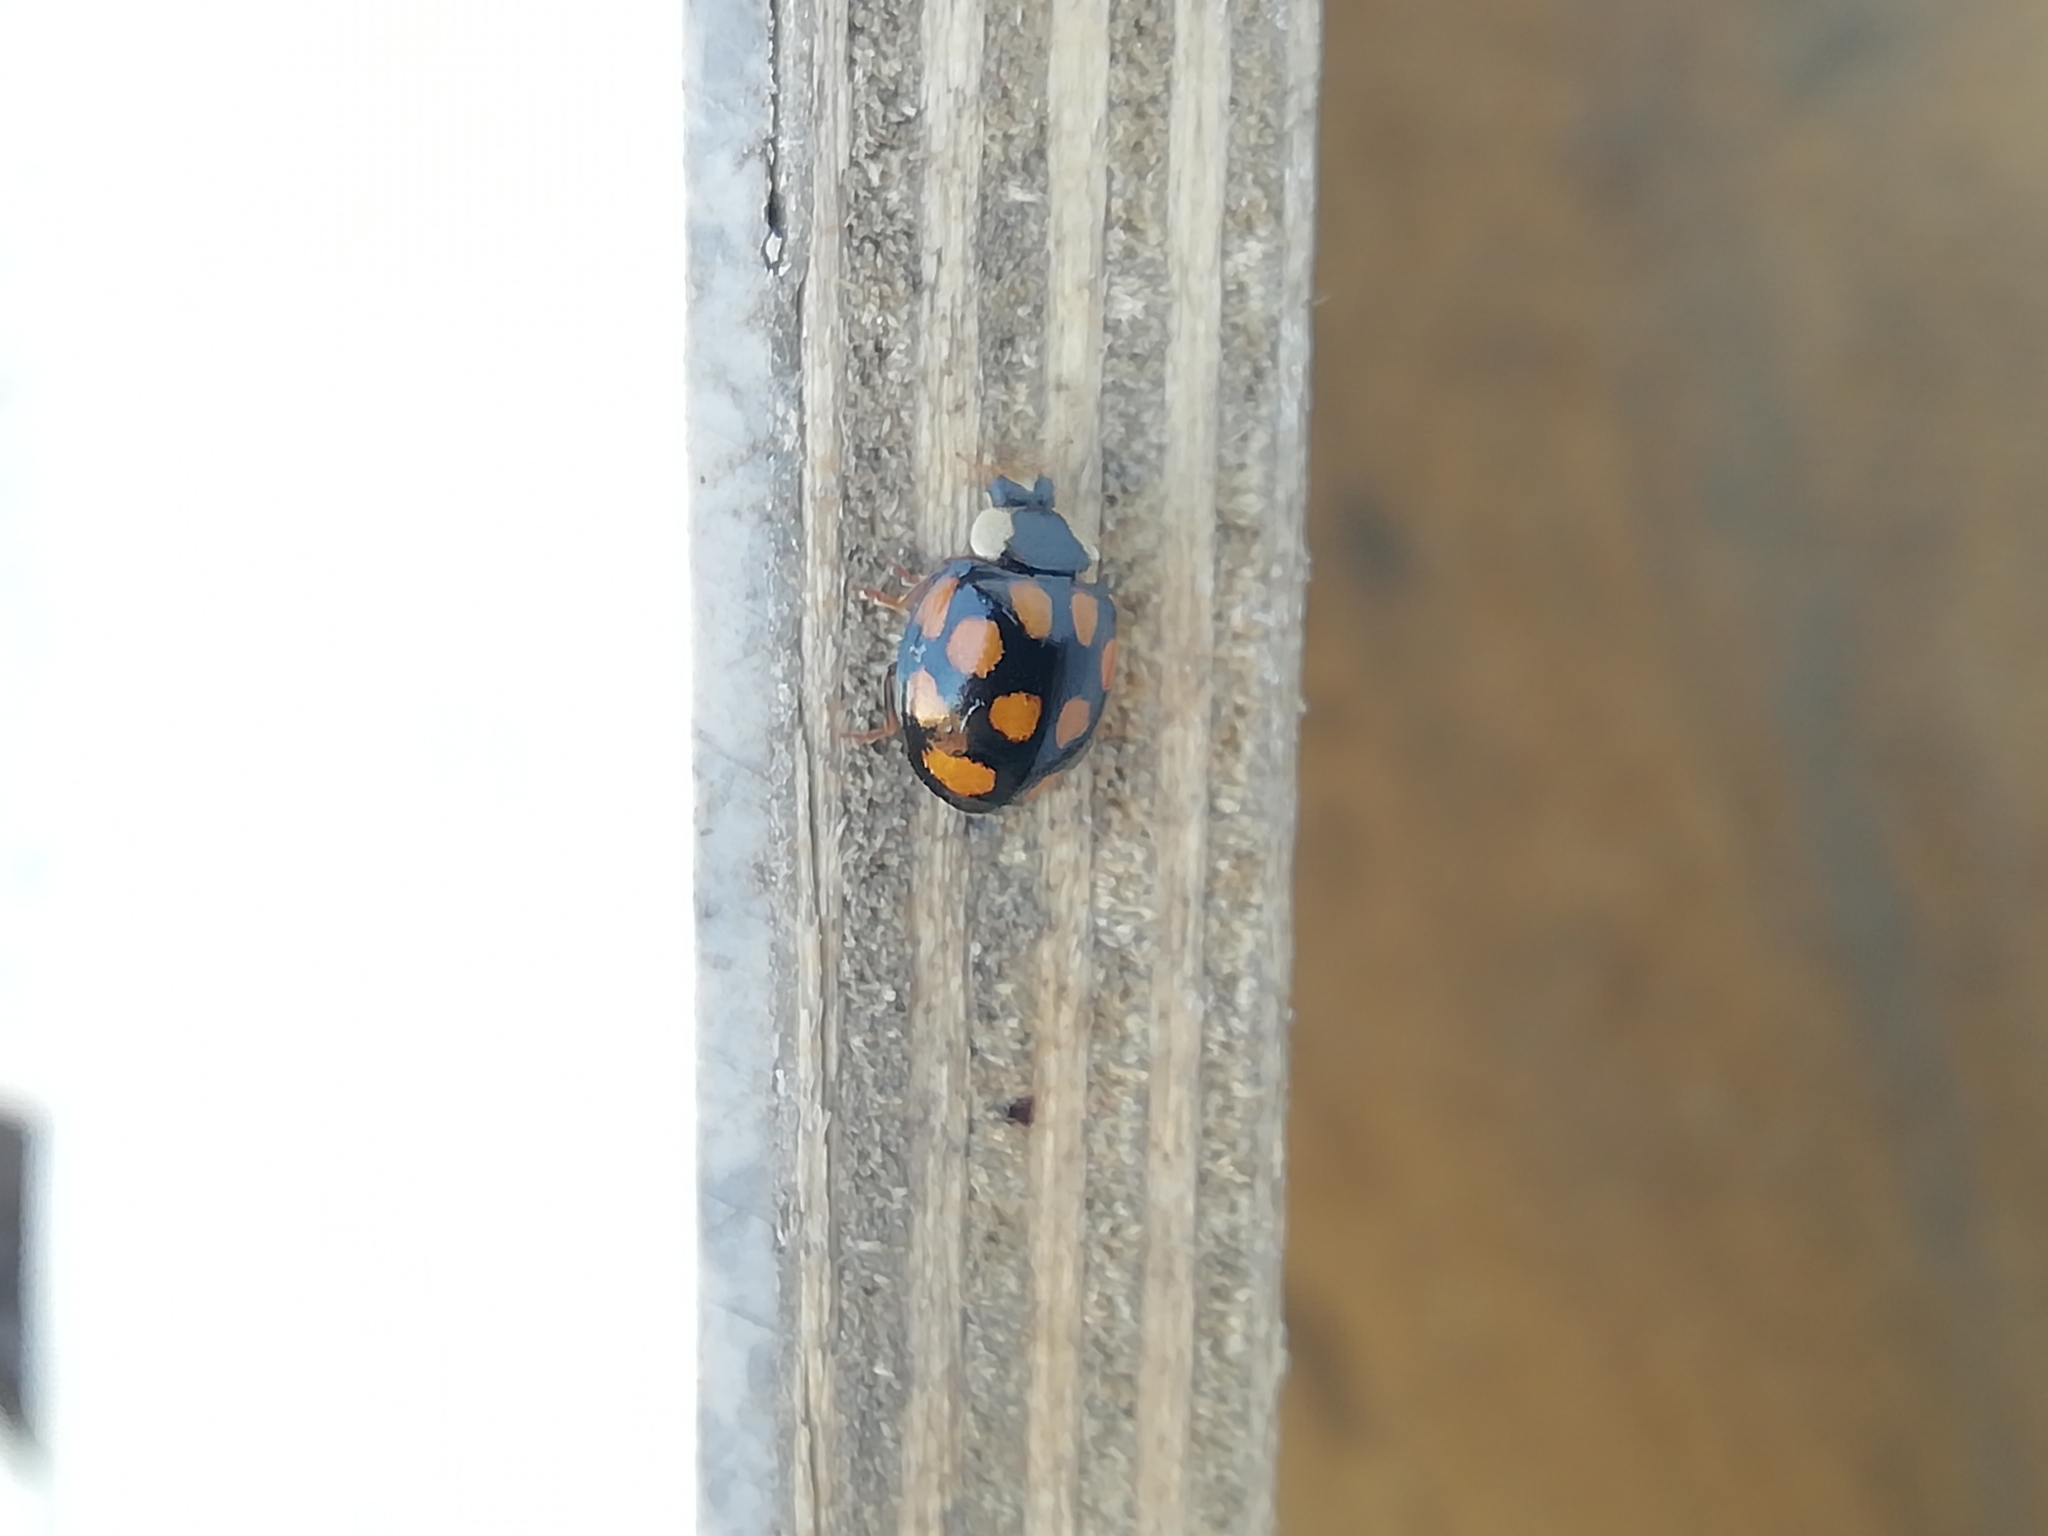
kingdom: Animalia
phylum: Arthropoda
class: Insecta
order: Coleoptera
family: Coccinellidae
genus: Harmonia
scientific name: Harmonia axyridis
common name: Harlequin ladybird
